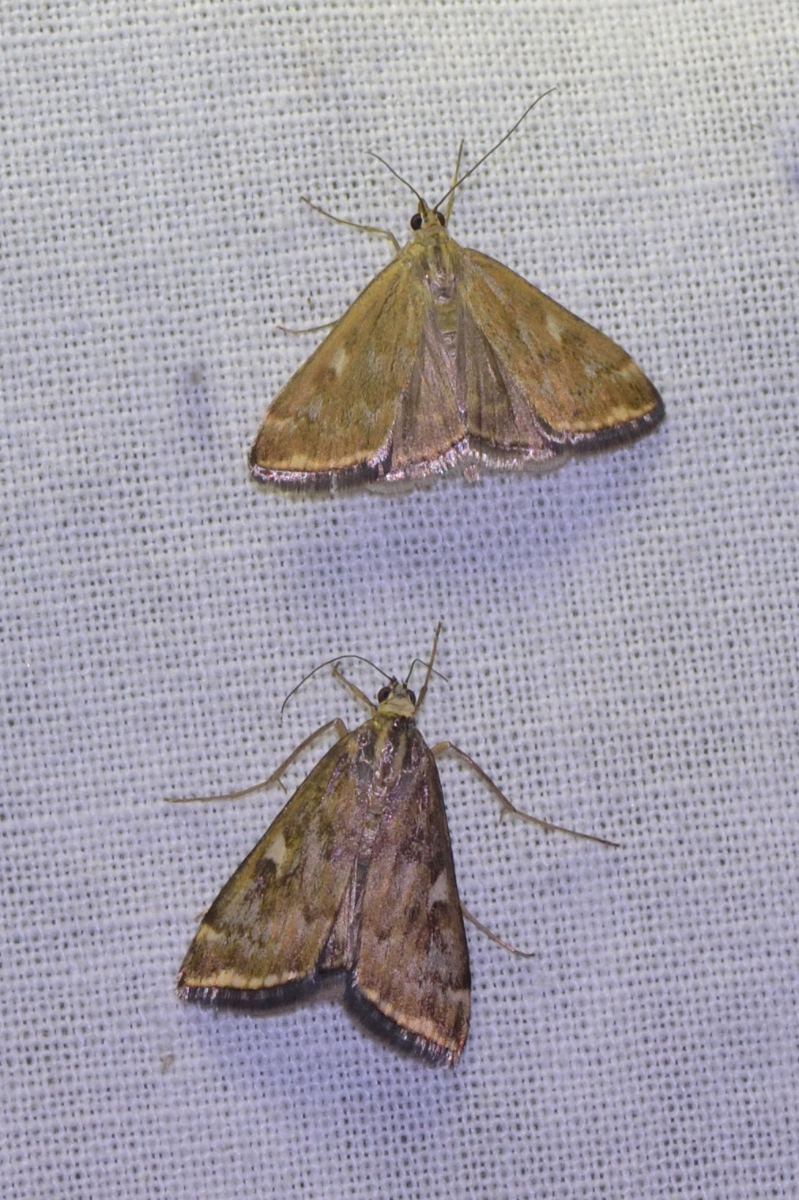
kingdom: Animalia
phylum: Arthropoda
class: Insecta
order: Lepidoptera
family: Crambidae
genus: Loxostege
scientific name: Loxostege sticticalis
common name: Crambid moth
